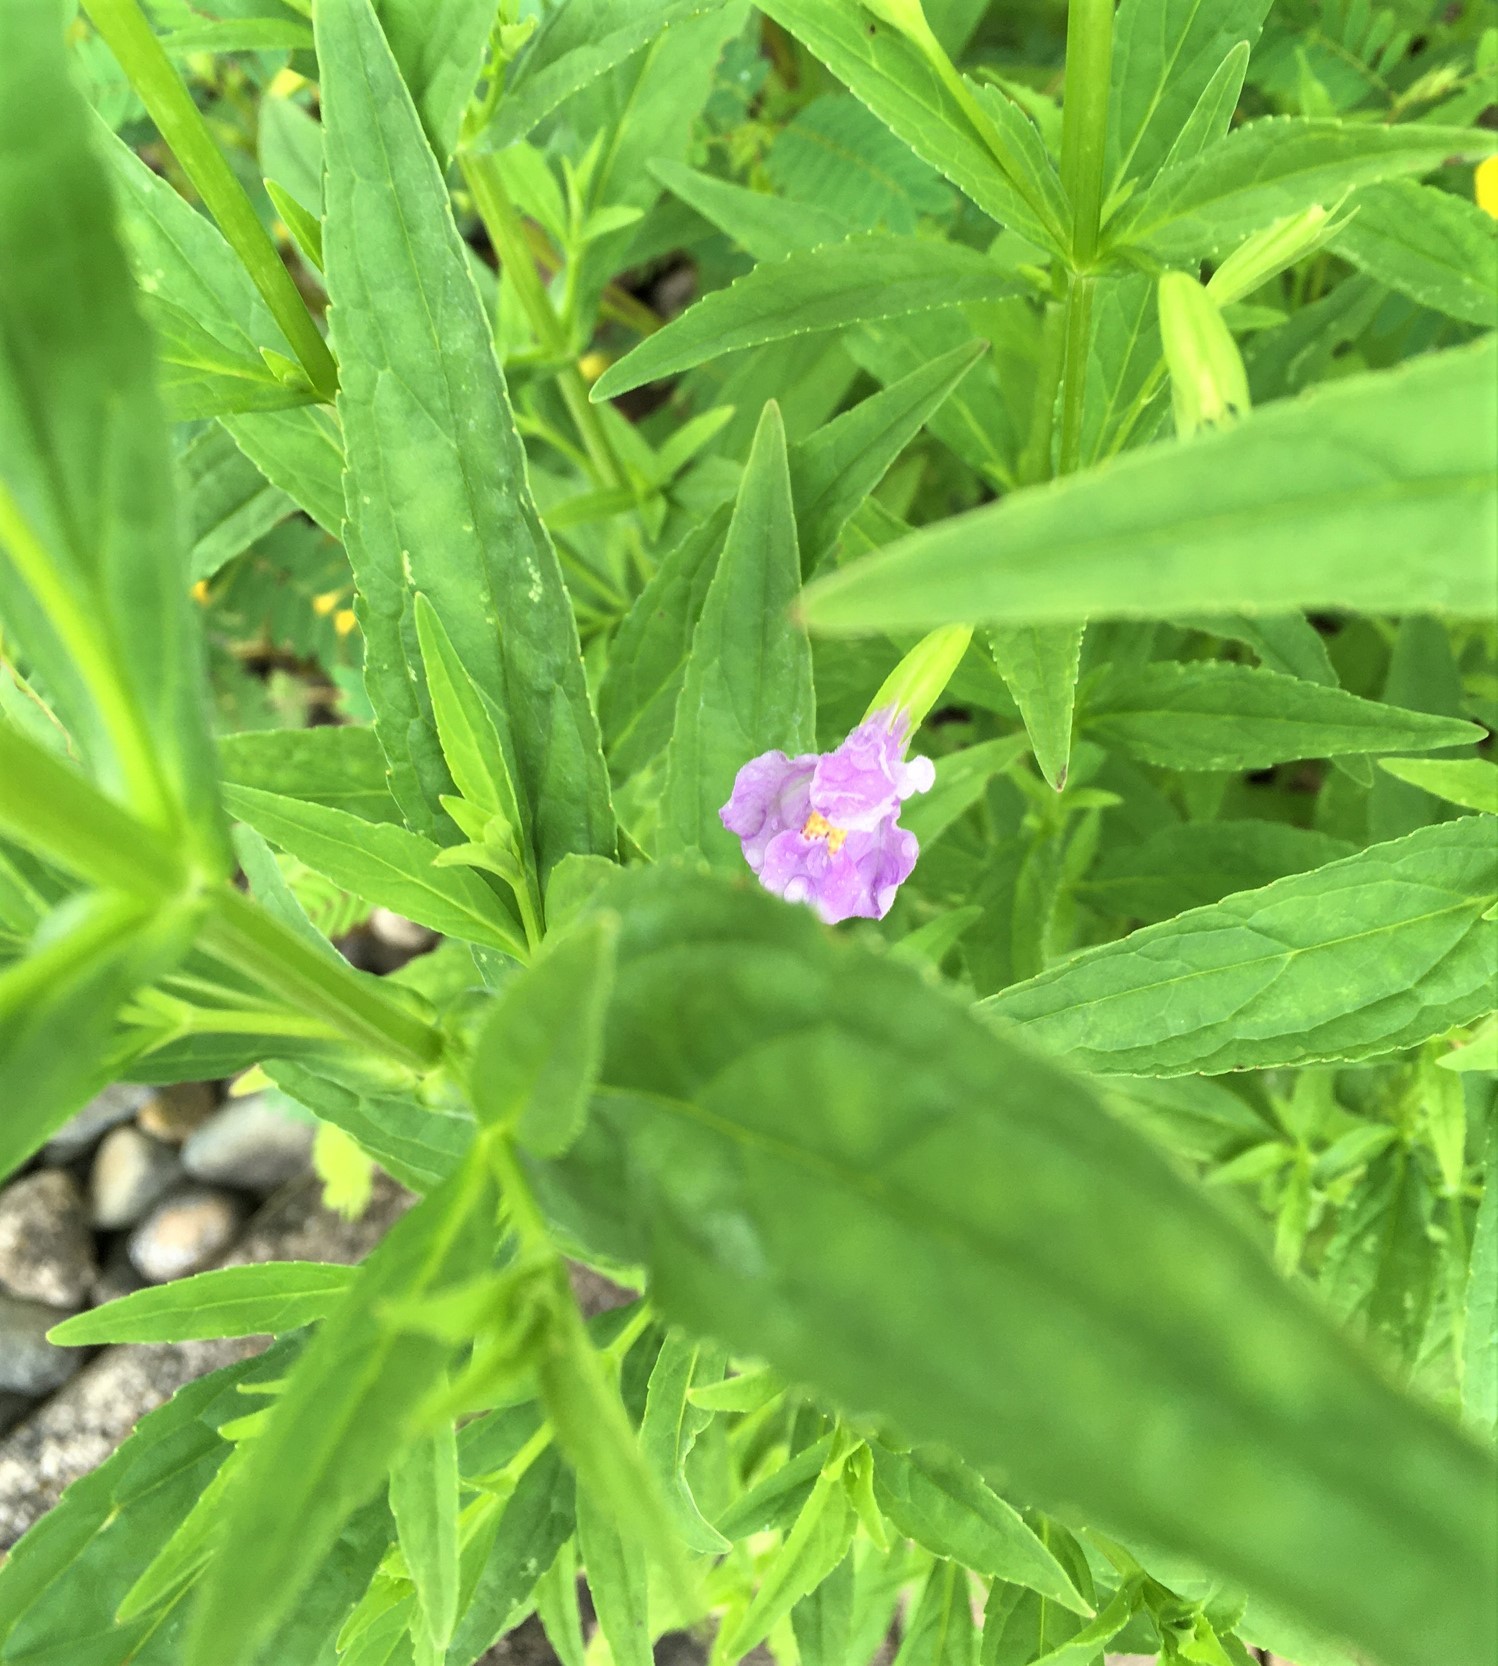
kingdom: Plantae
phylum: Tracheophyta
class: Magnoliopsida
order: Lamiales
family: Phrymaceae
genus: Mimulus
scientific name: Mimulus ringens
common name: Allegheny monkeyflower
